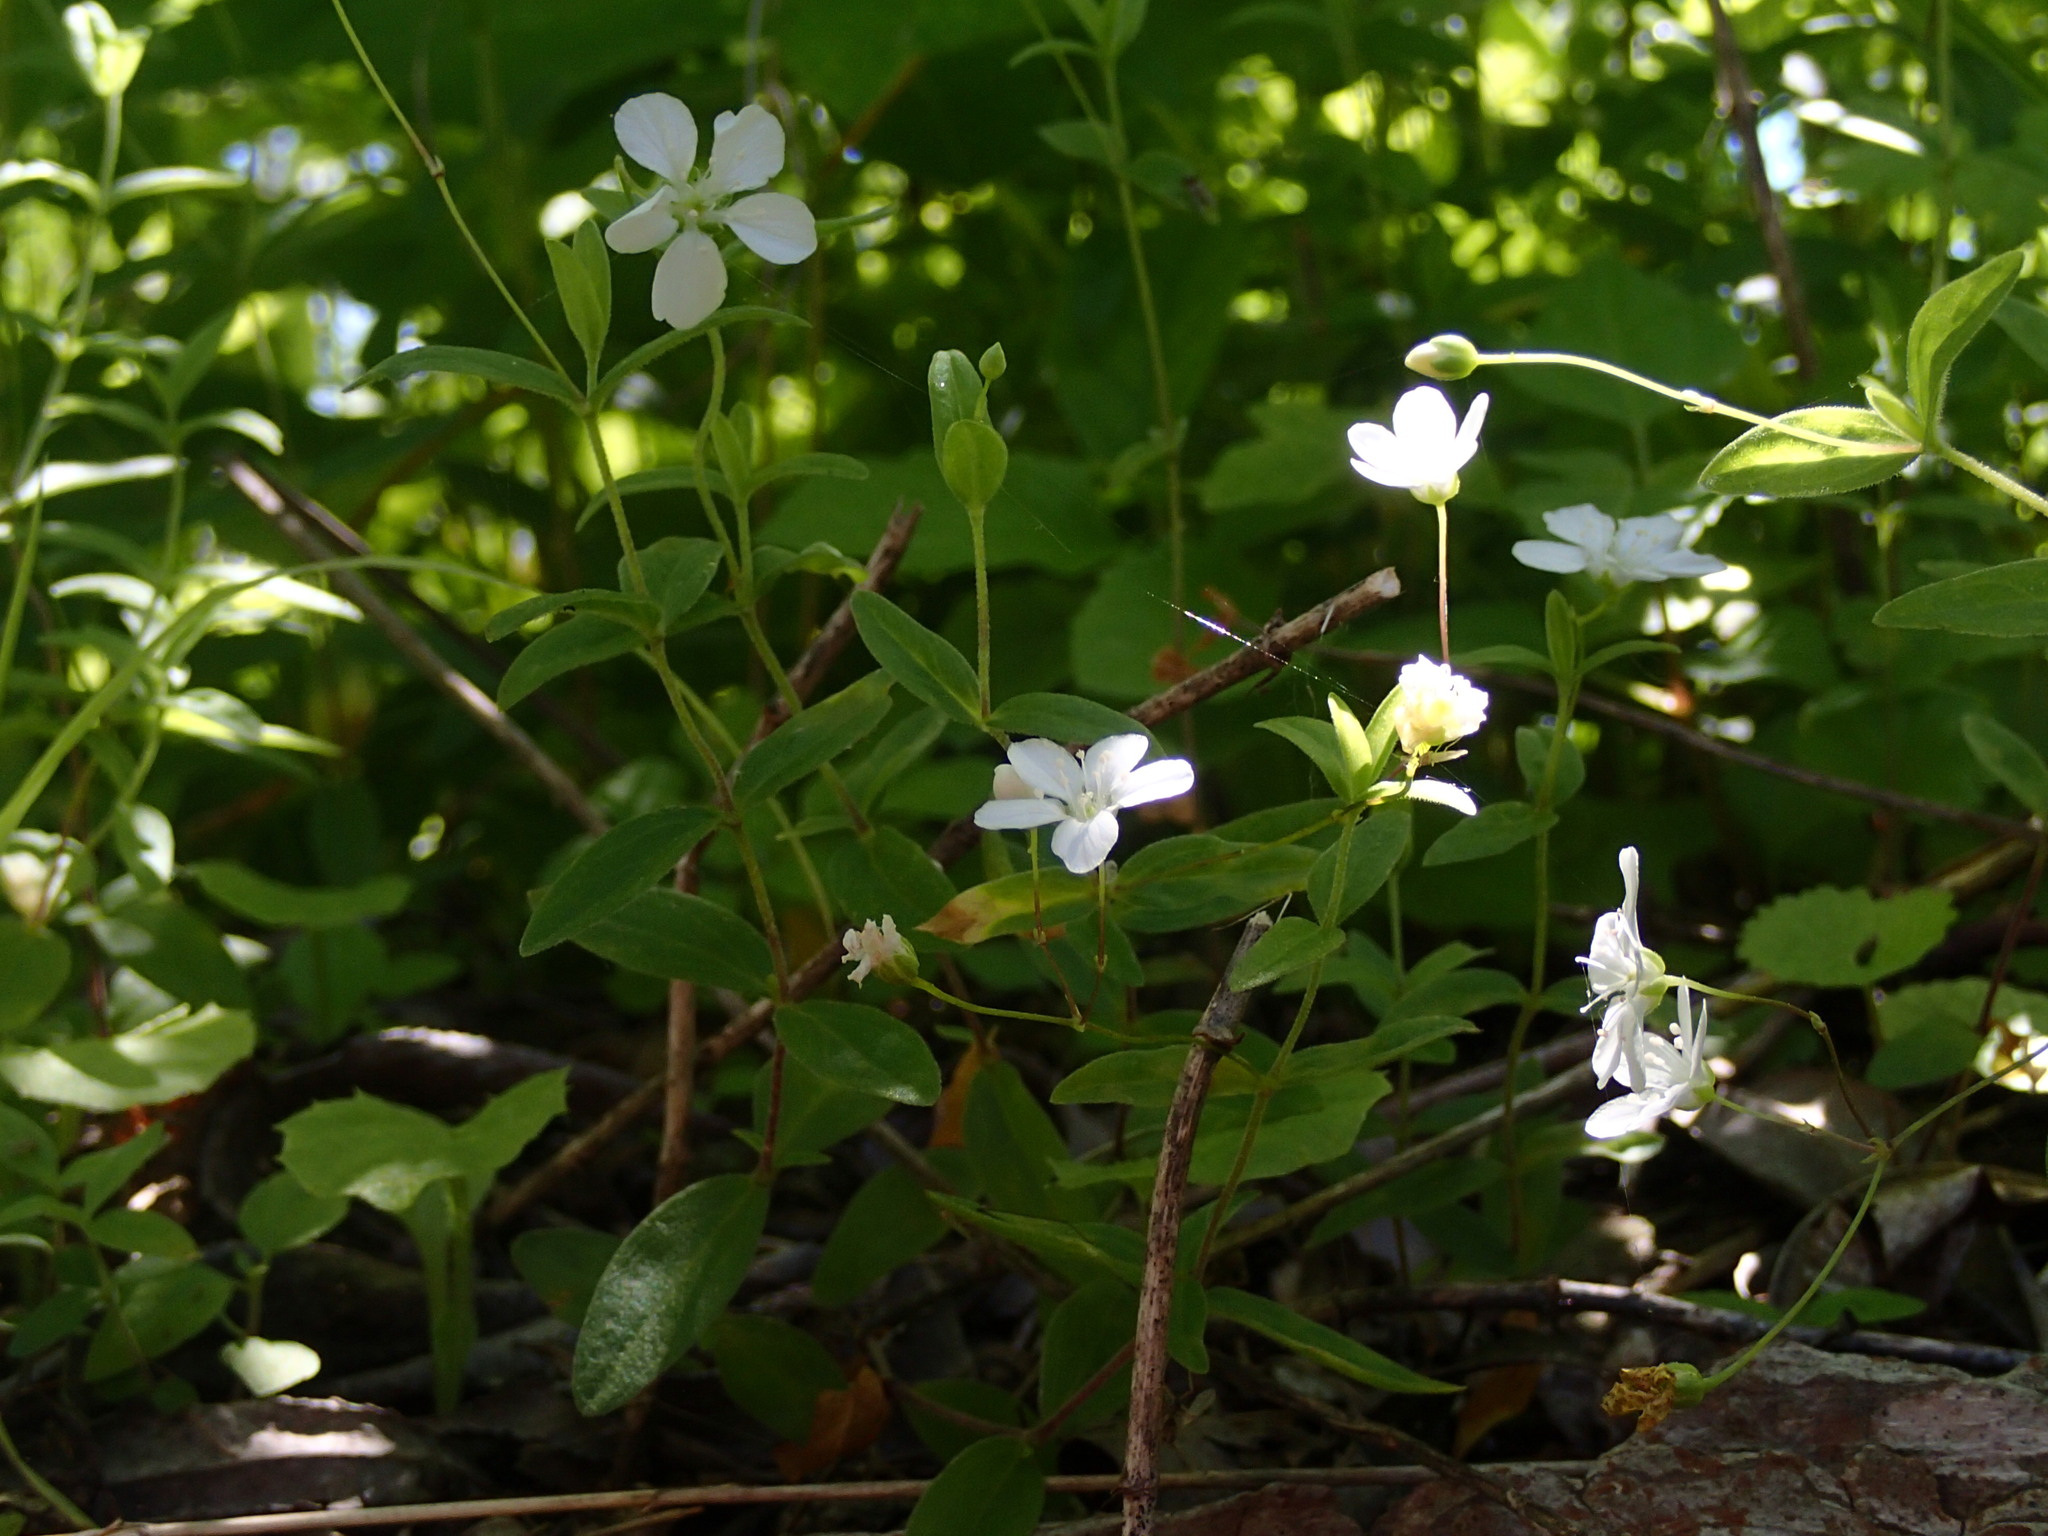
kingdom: Plantae
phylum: Tracheophyta
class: Magnoliopsida
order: Caryophyllales
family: Caryophyllaceae
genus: Moehringia
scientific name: Moehringia lateriflora
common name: Blunt-leaved sandwort
